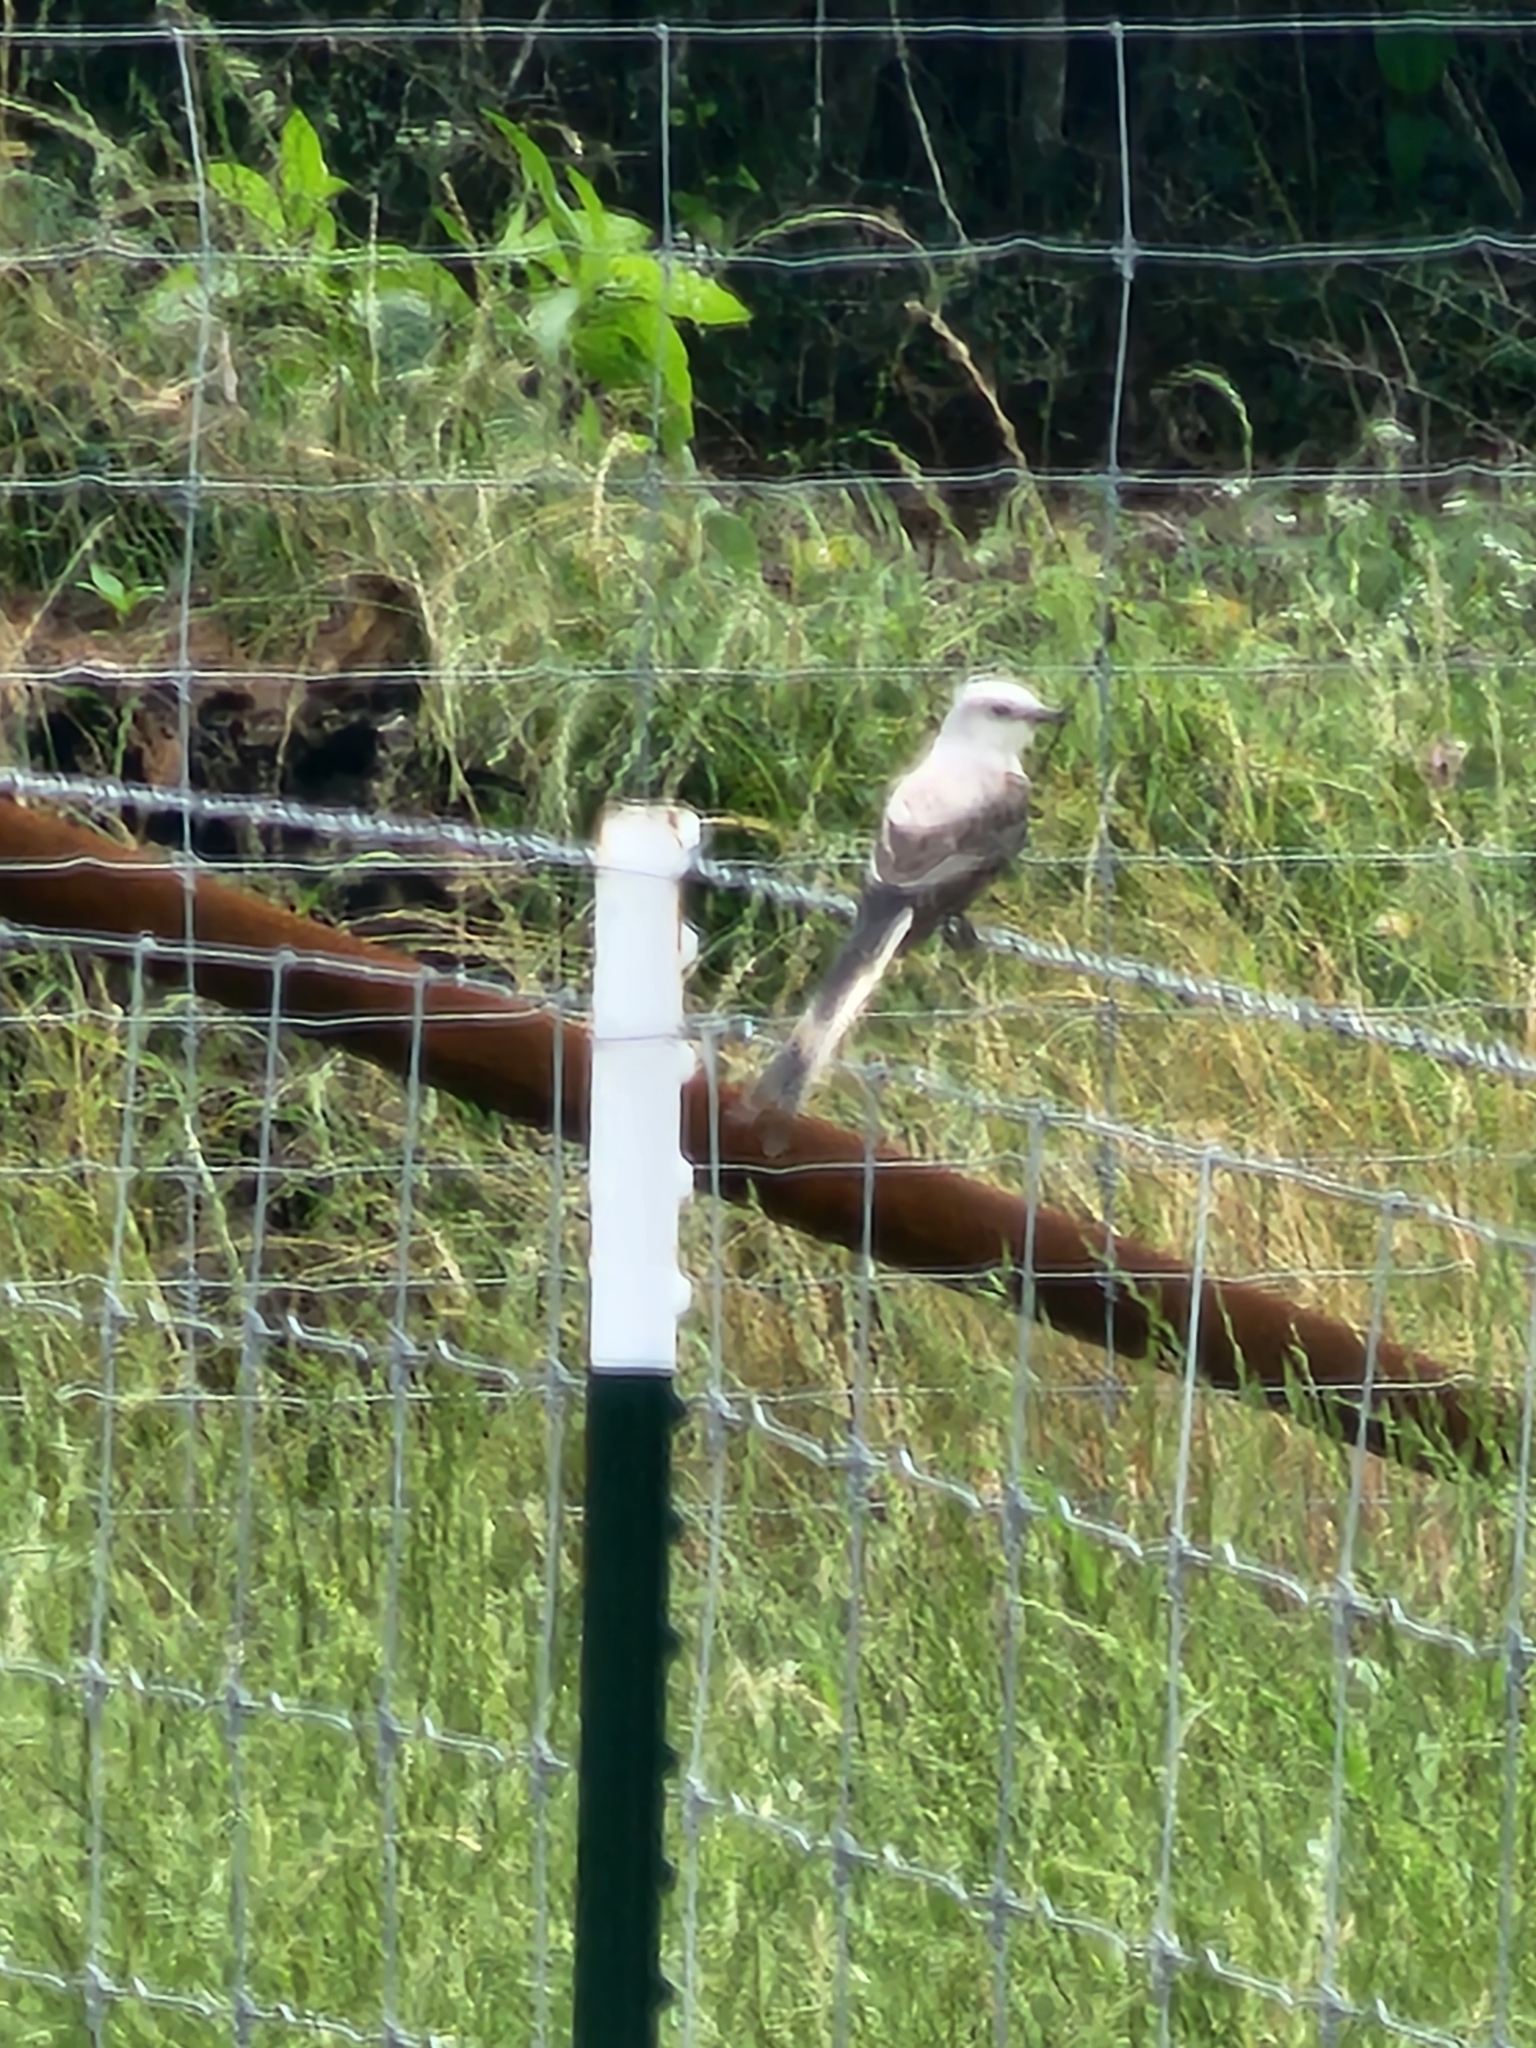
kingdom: Animalia
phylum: Chordata
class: Aves
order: Passeriformes
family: Tyrannidae
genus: Tyrannus
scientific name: Tyrannus forficatus
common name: Scissor-tailed flycatcher
